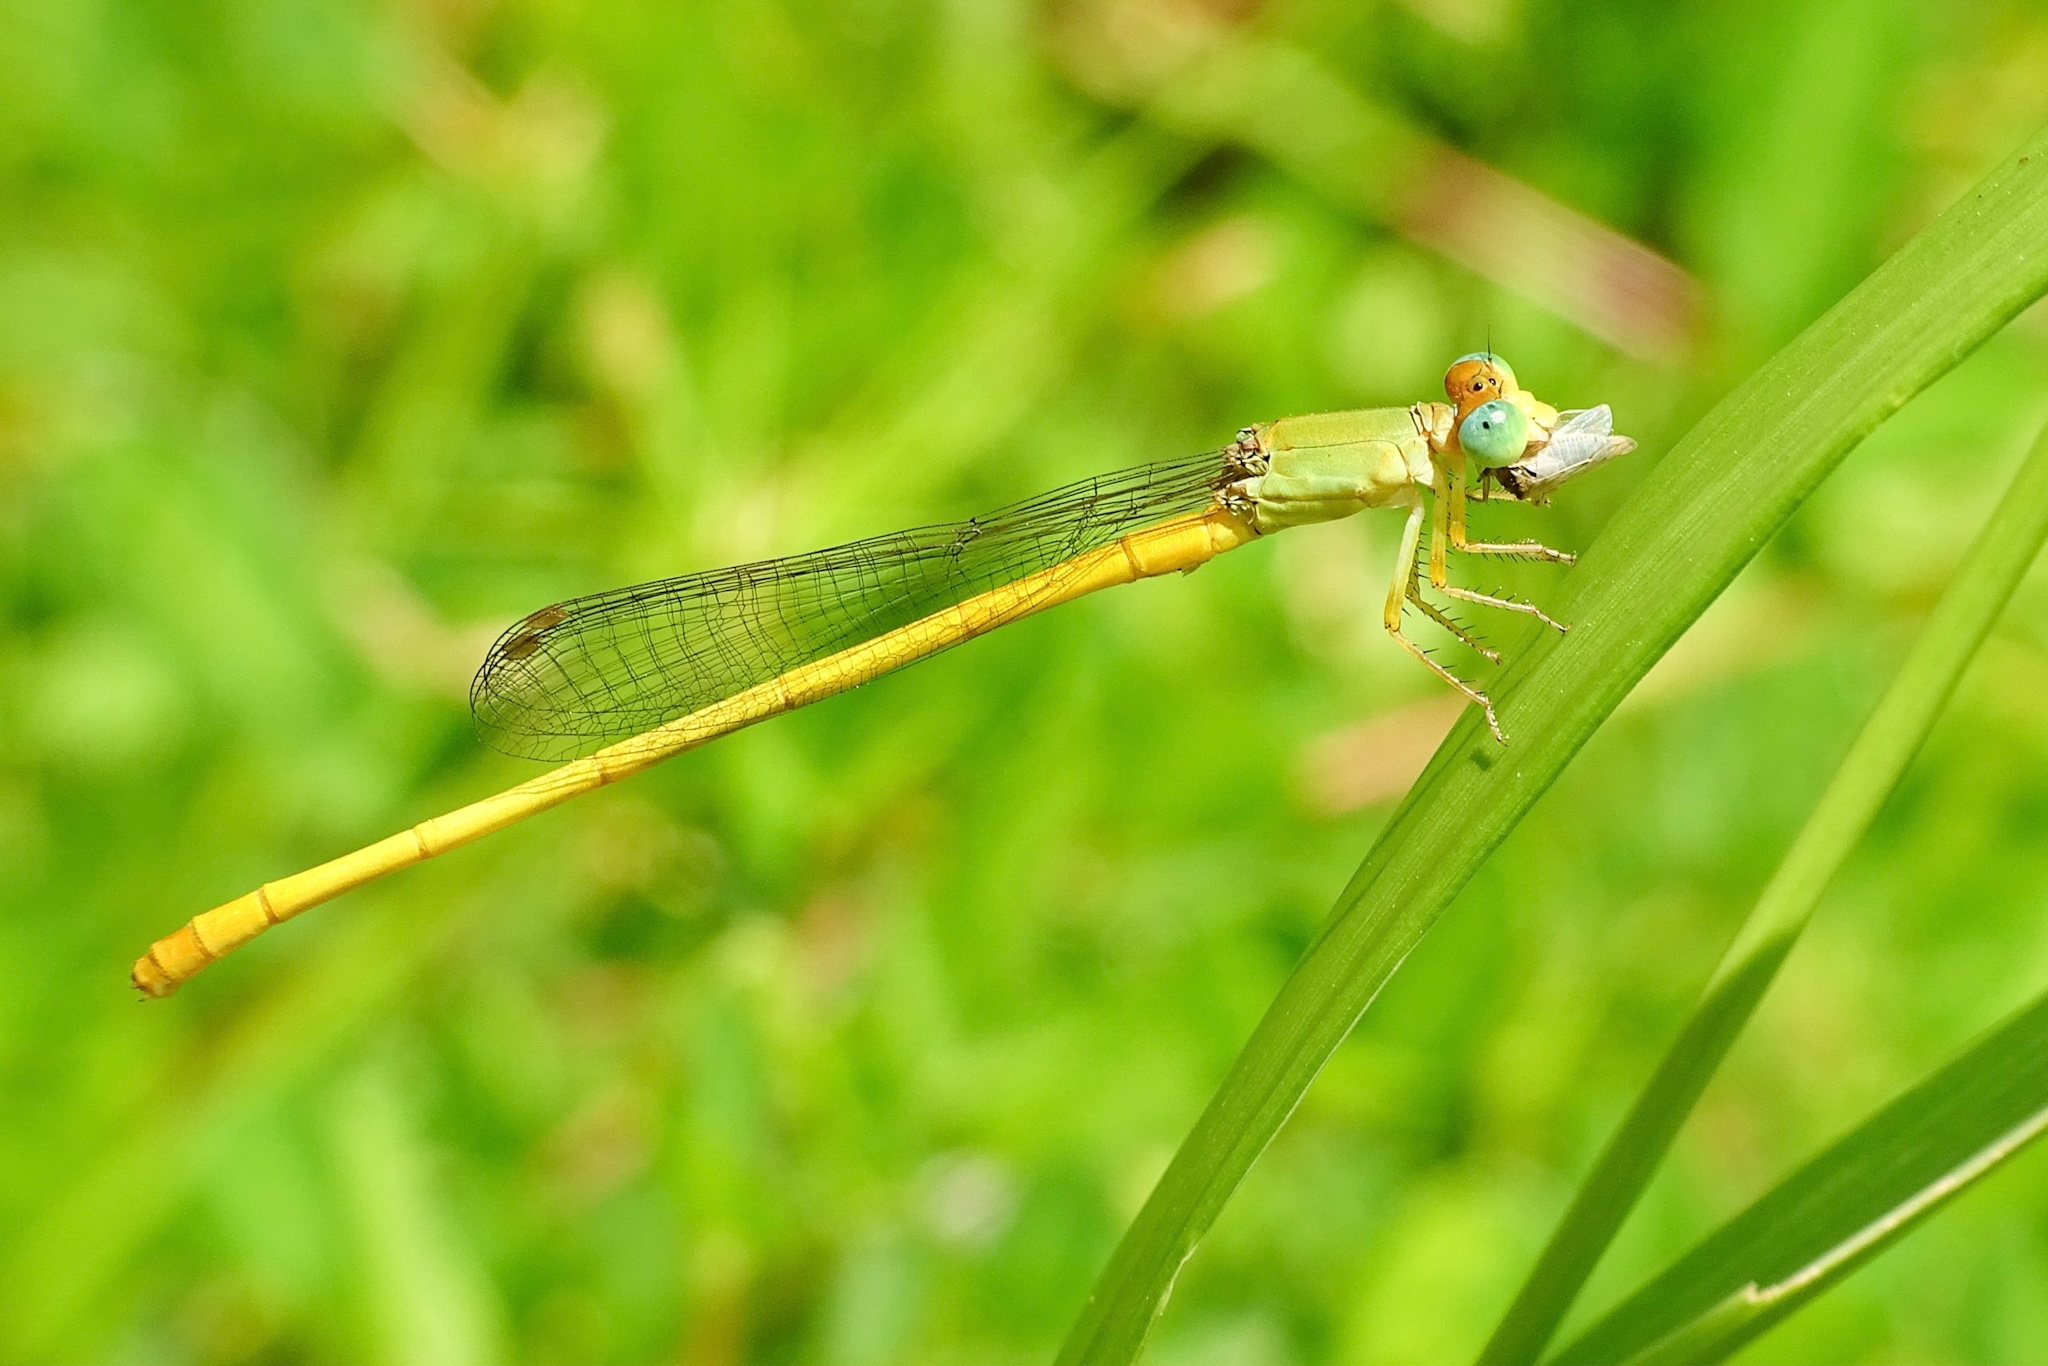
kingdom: Animalia
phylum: Arthropoda
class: Insecta
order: Odonata
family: Coenagrionidae
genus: Ceriagrion
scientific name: Ceriagrion coromandelianum
